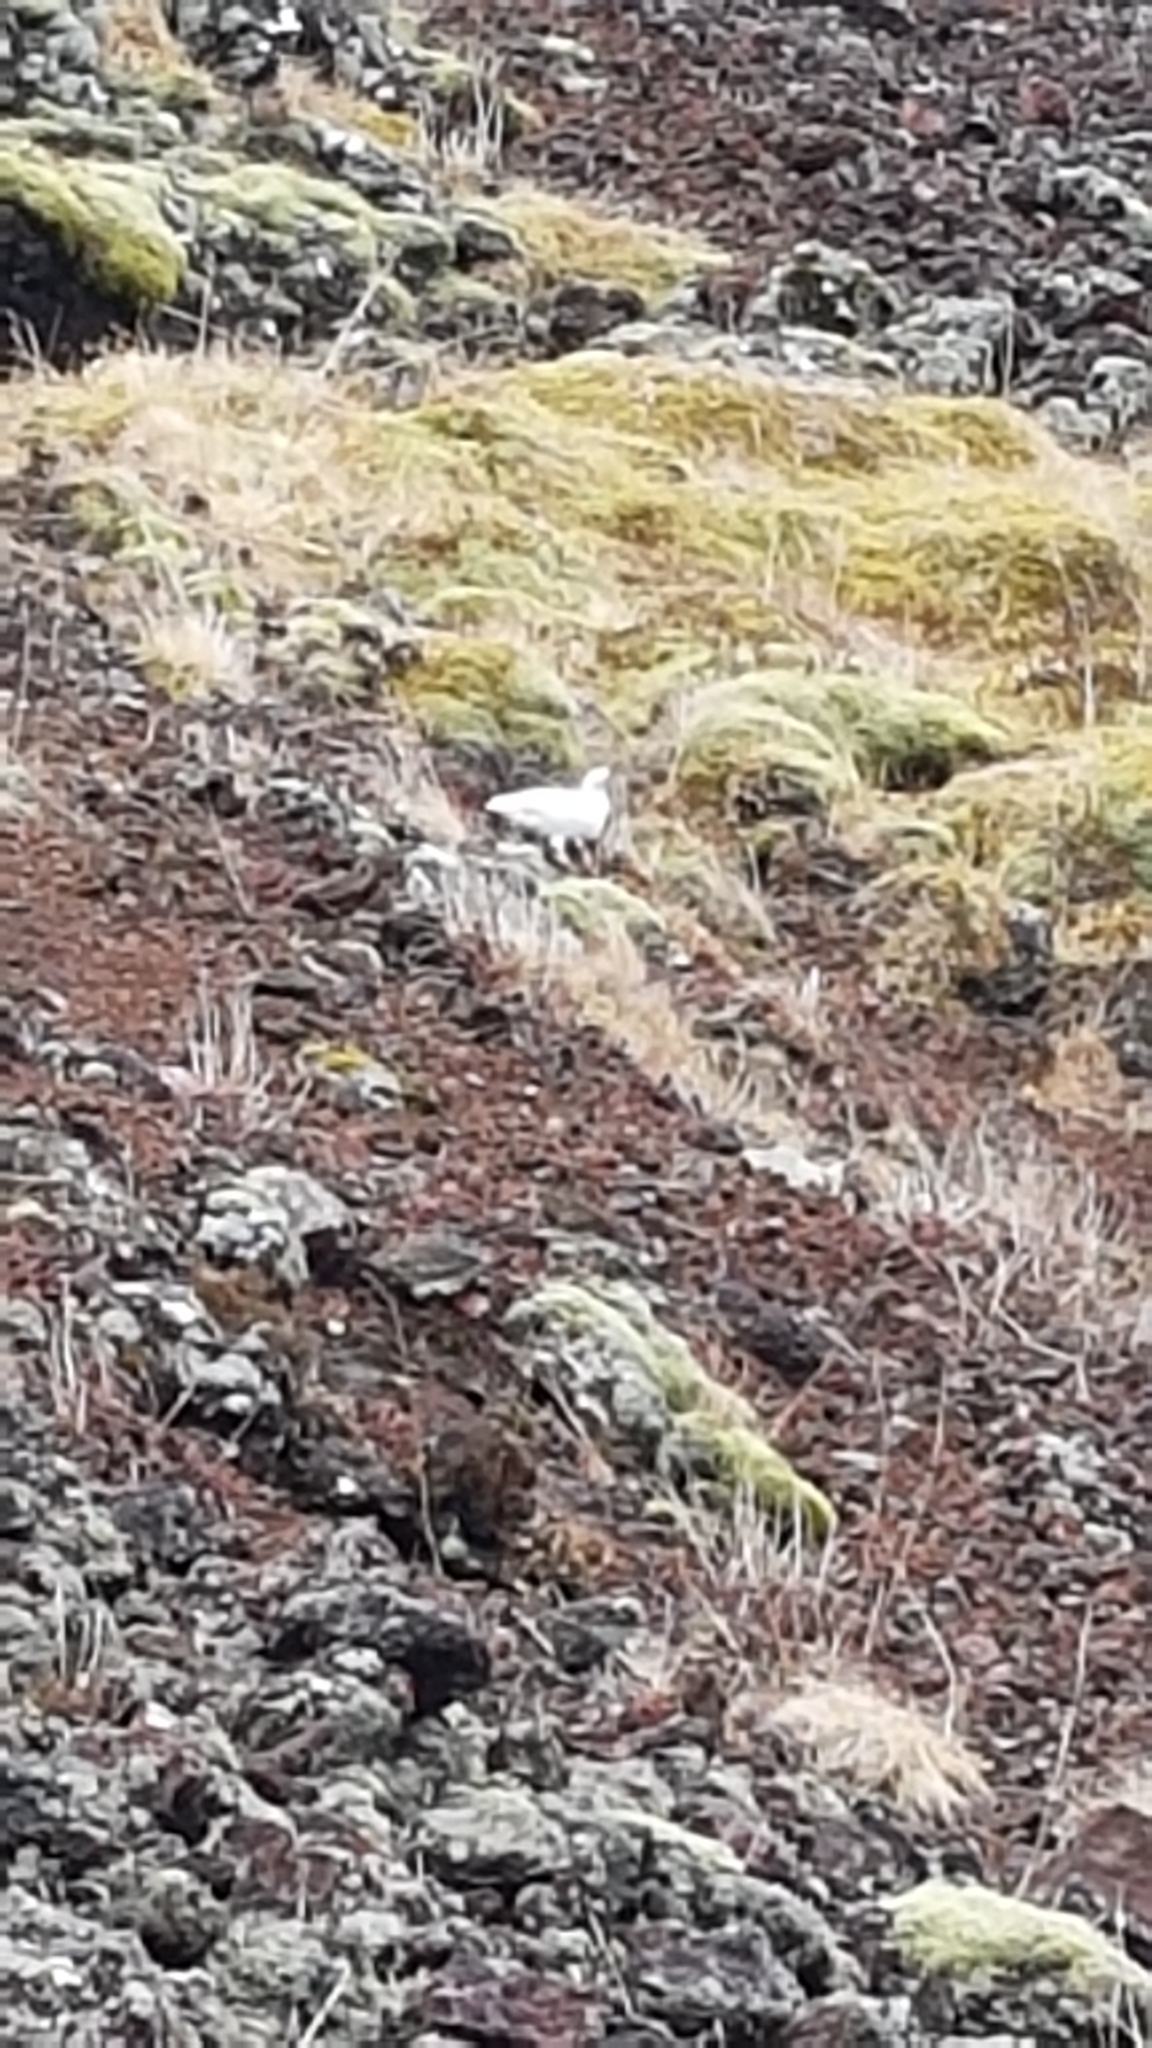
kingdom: Animalia
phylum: Chordata
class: Aves
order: Galliformes
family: Phasianidae
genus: Lagopus
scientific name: Lagopus muta
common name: Rock ptarmigan
